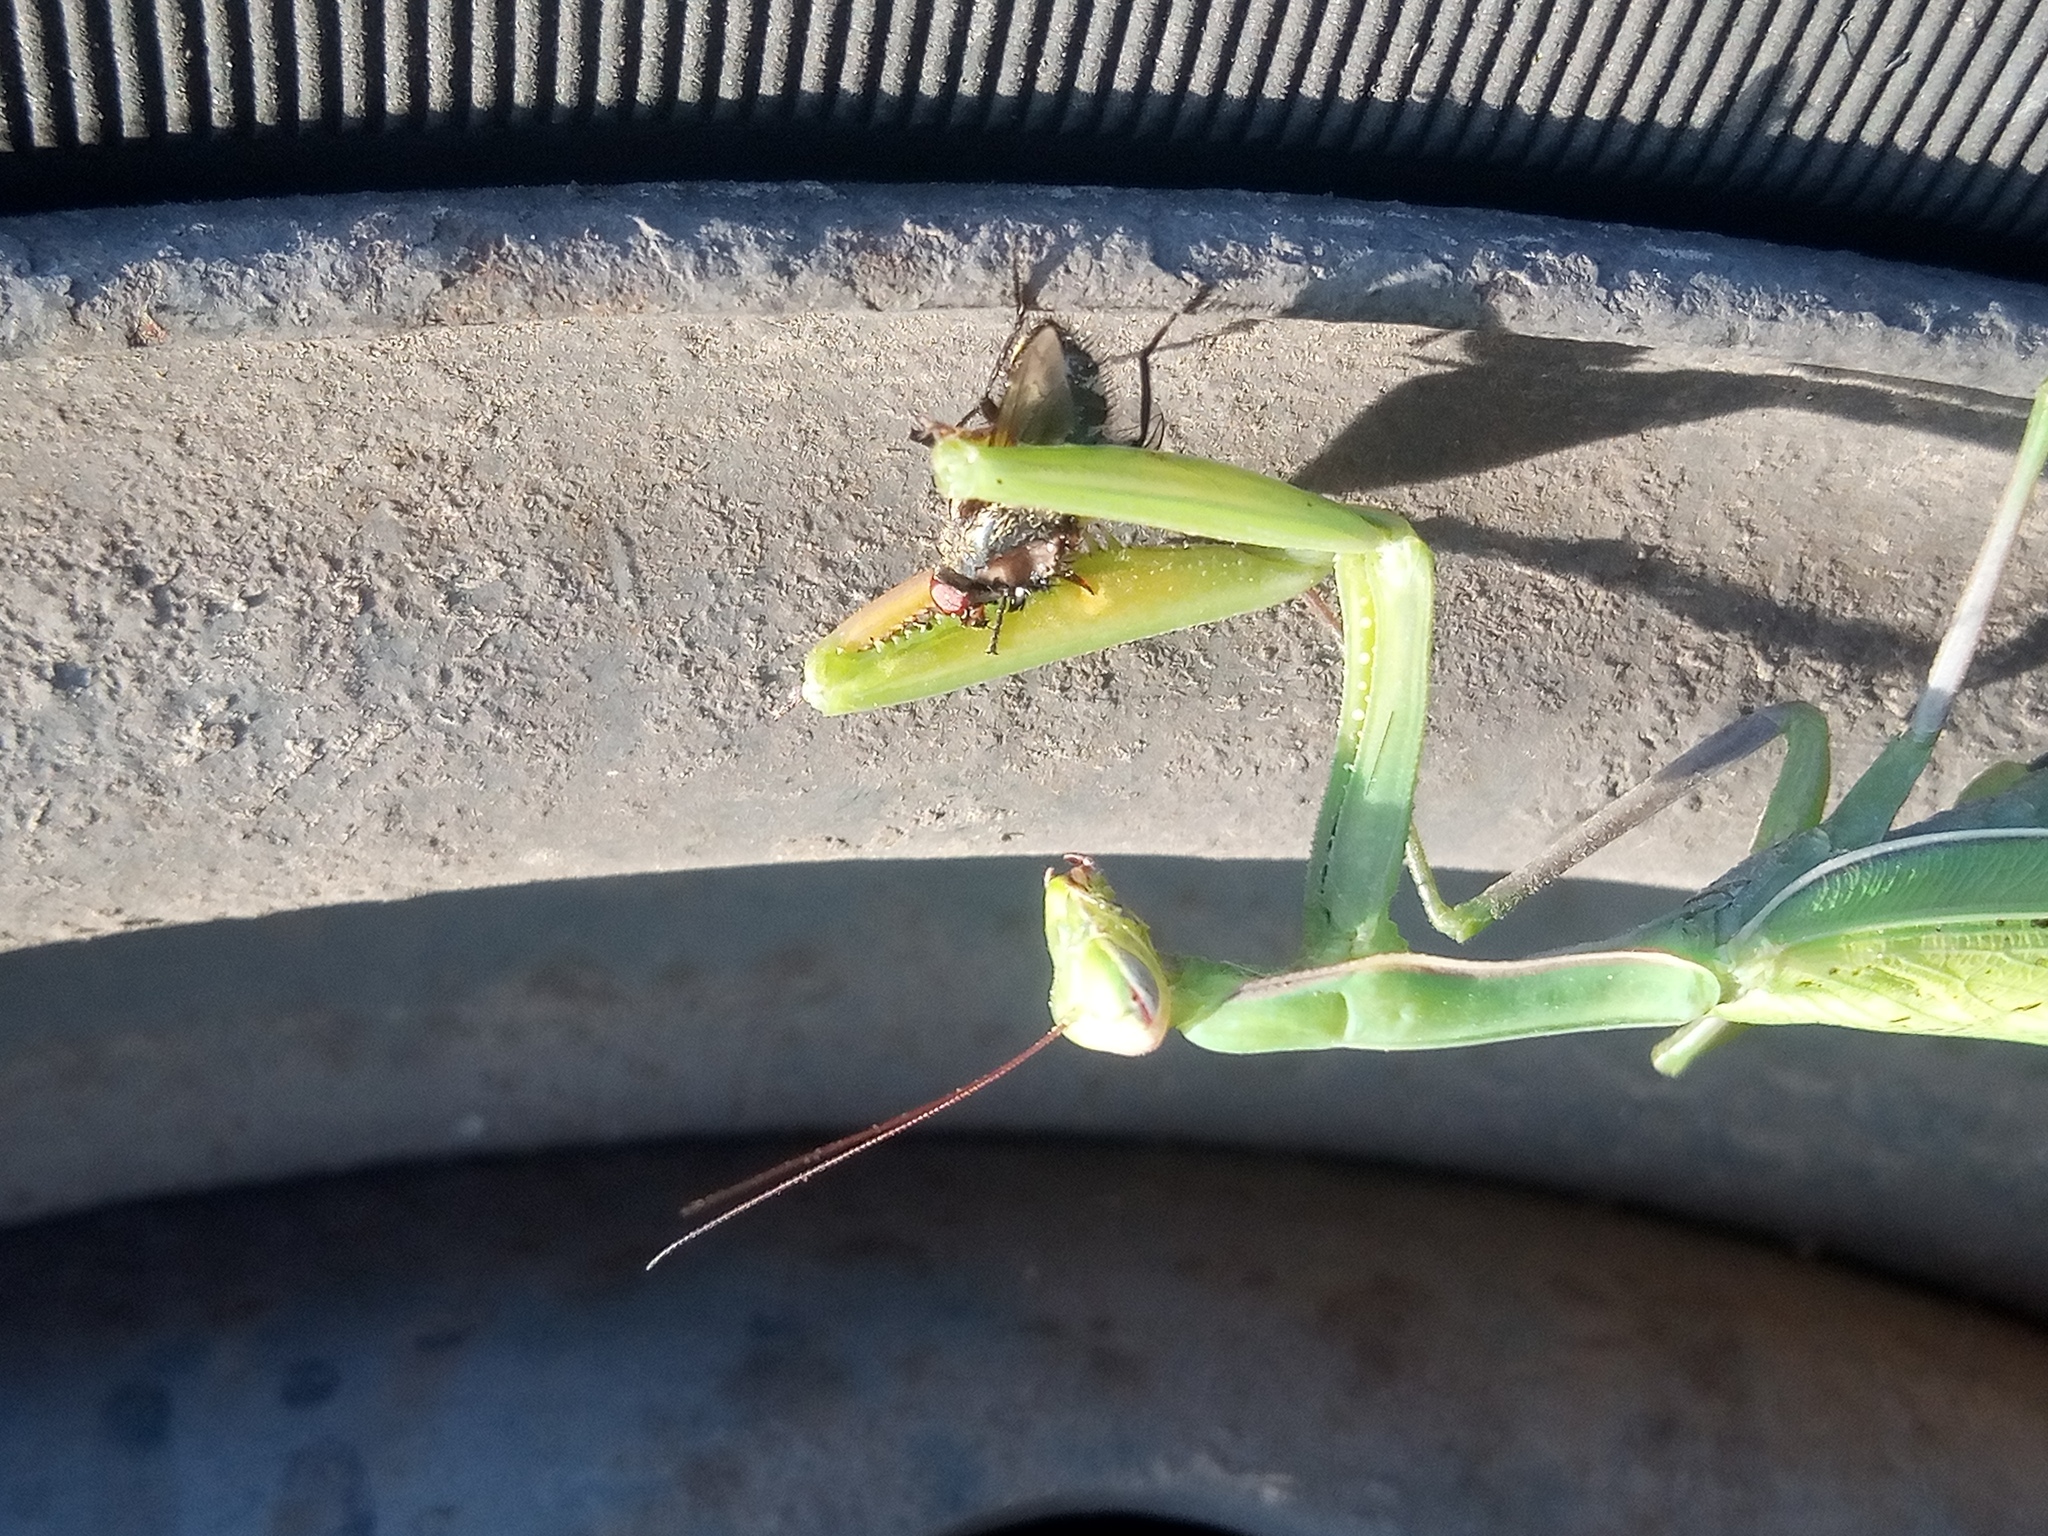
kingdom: Animalia
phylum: Arthropoda
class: Insecta
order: Mantodea
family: Mantidae
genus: Mantis
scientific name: Mantis religiosa
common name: Praying mantis
